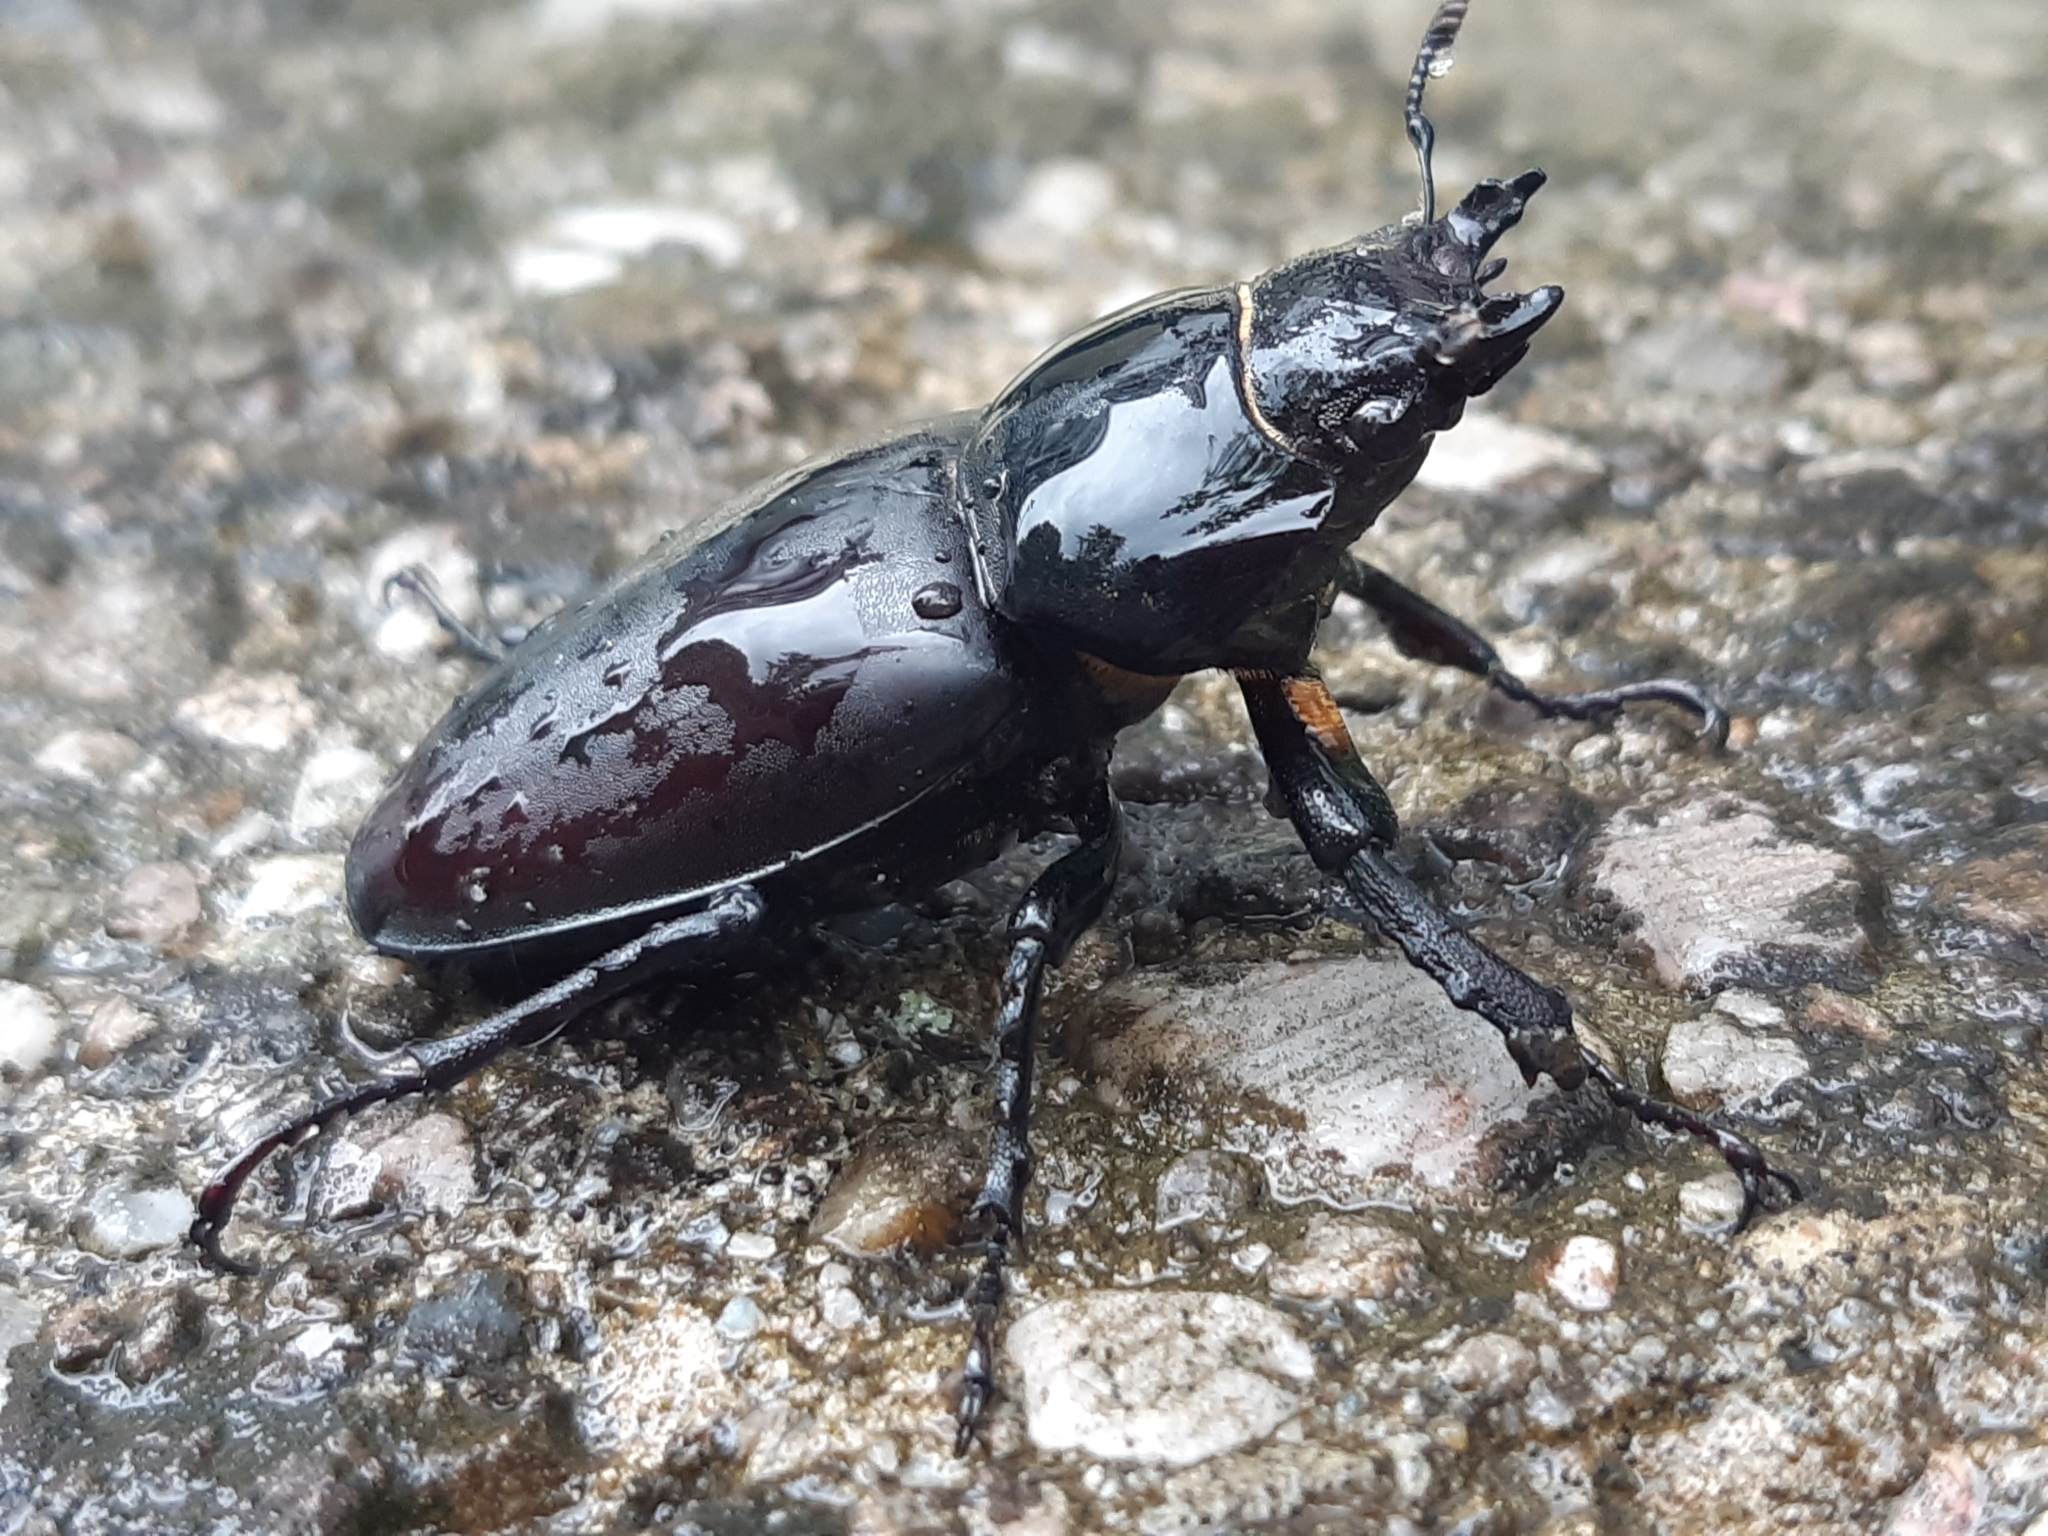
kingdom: Animalia
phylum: Arthropoda
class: Insecta
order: Coleoptera
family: Lucanidae
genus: Lucanus
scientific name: Lucanus cervus
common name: Stag beetle
